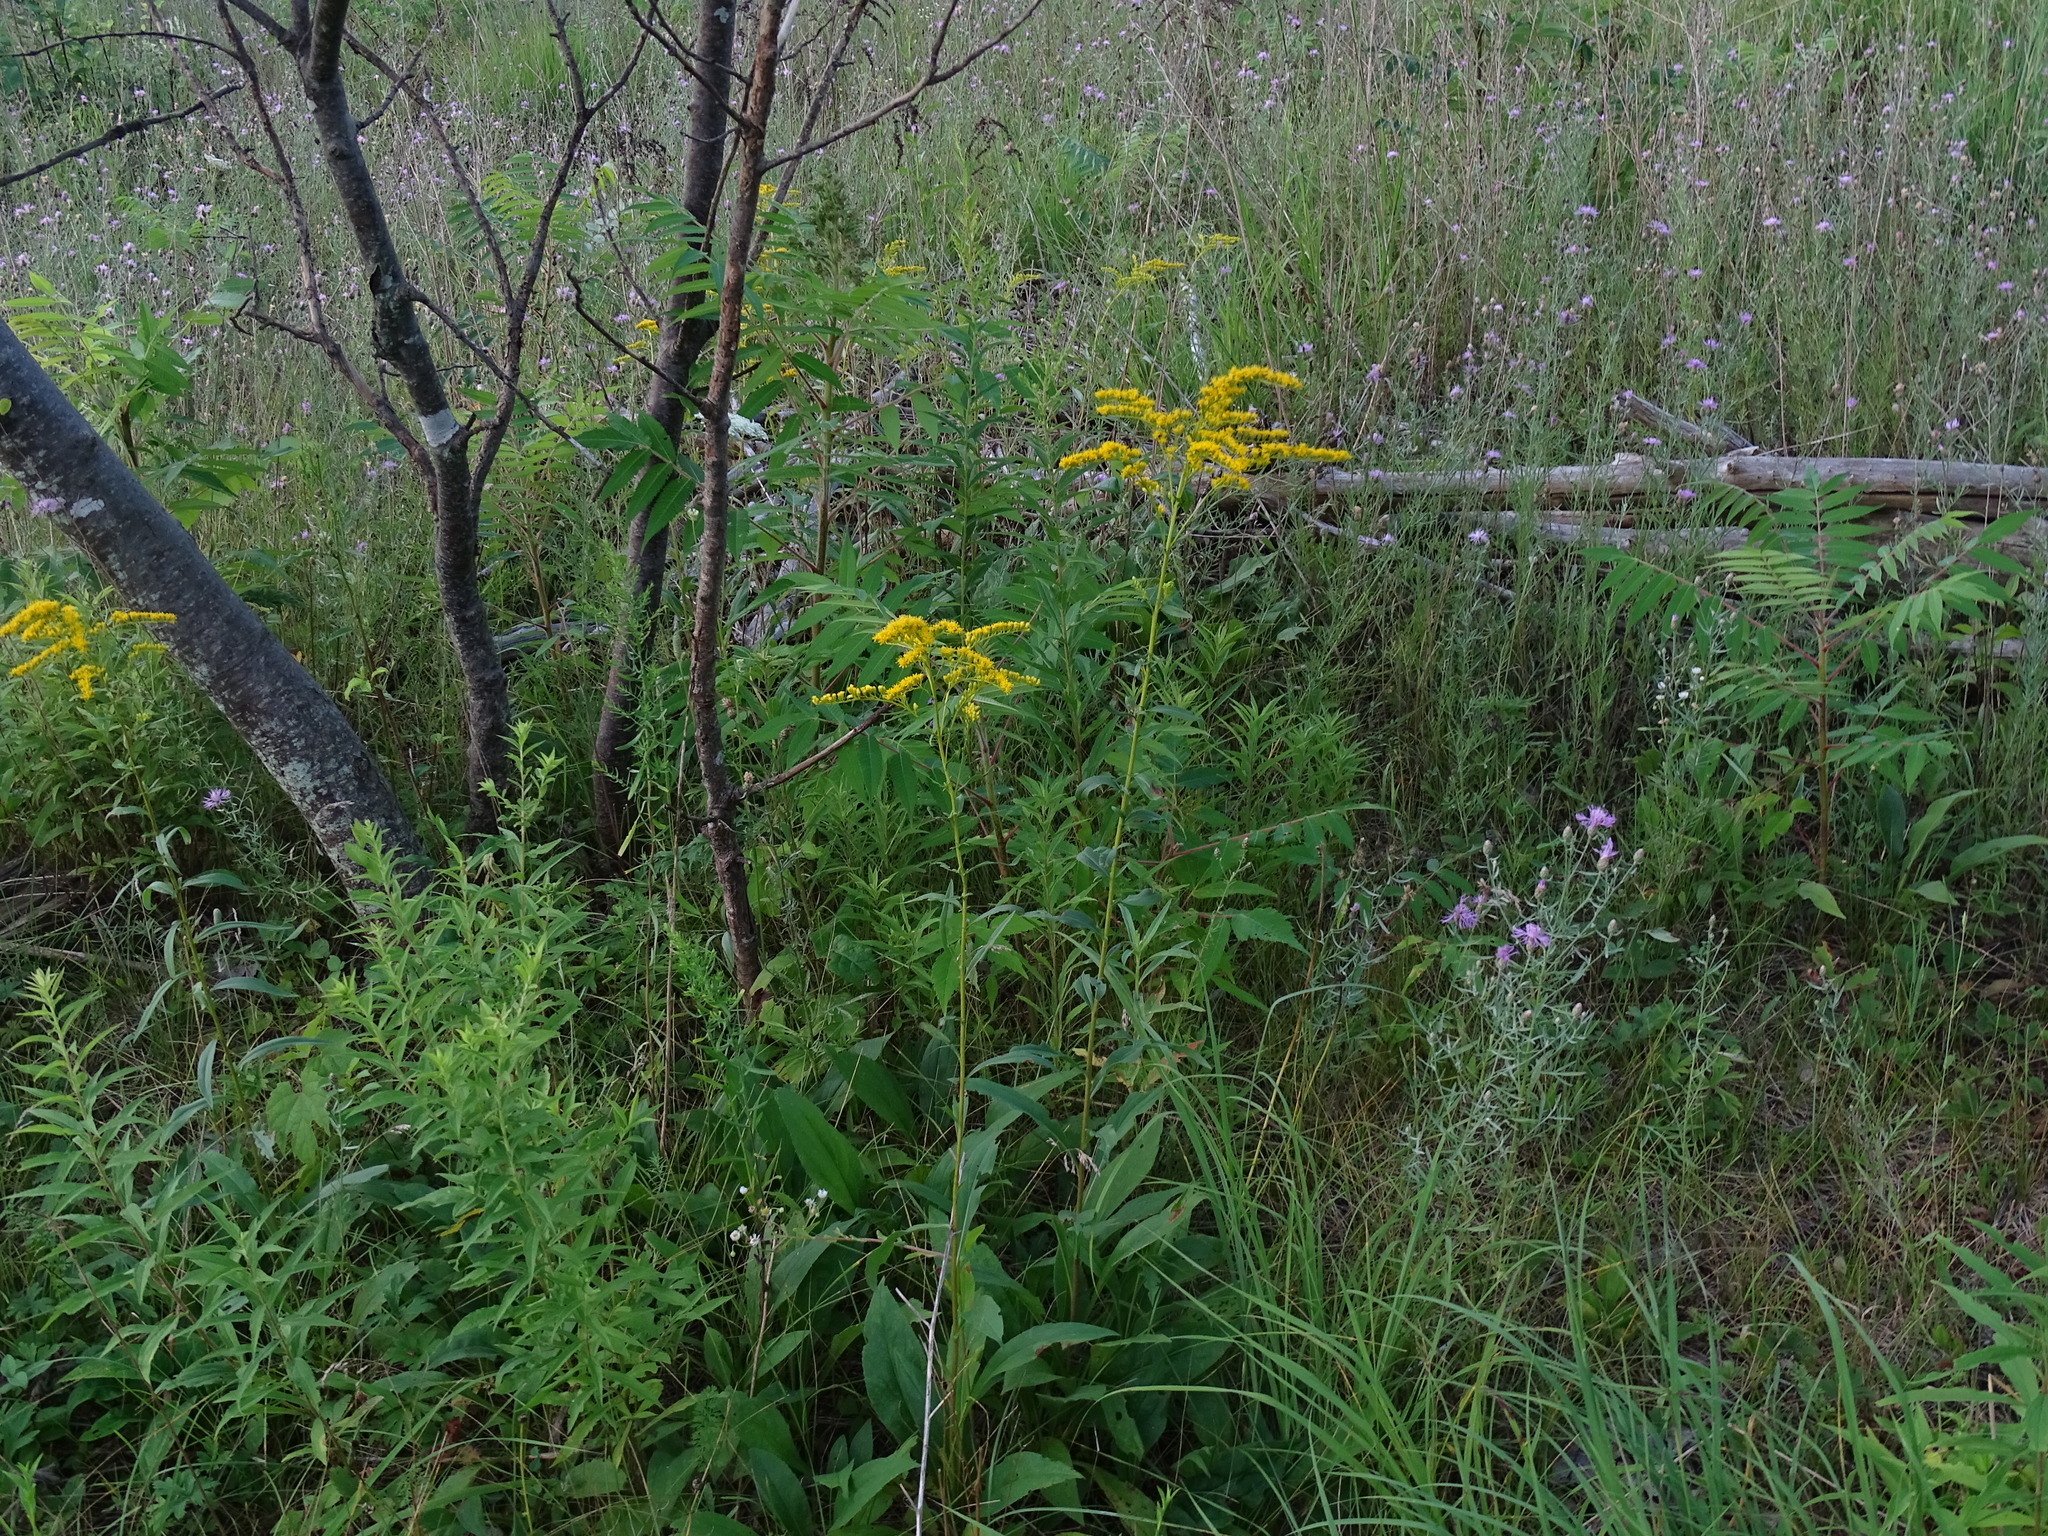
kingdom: Plantae
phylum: Tracheophyta
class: Magnoliopsida
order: Asterales
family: Asteraceae
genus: Solidago
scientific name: Solidago juncea
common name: Early goldenrod
